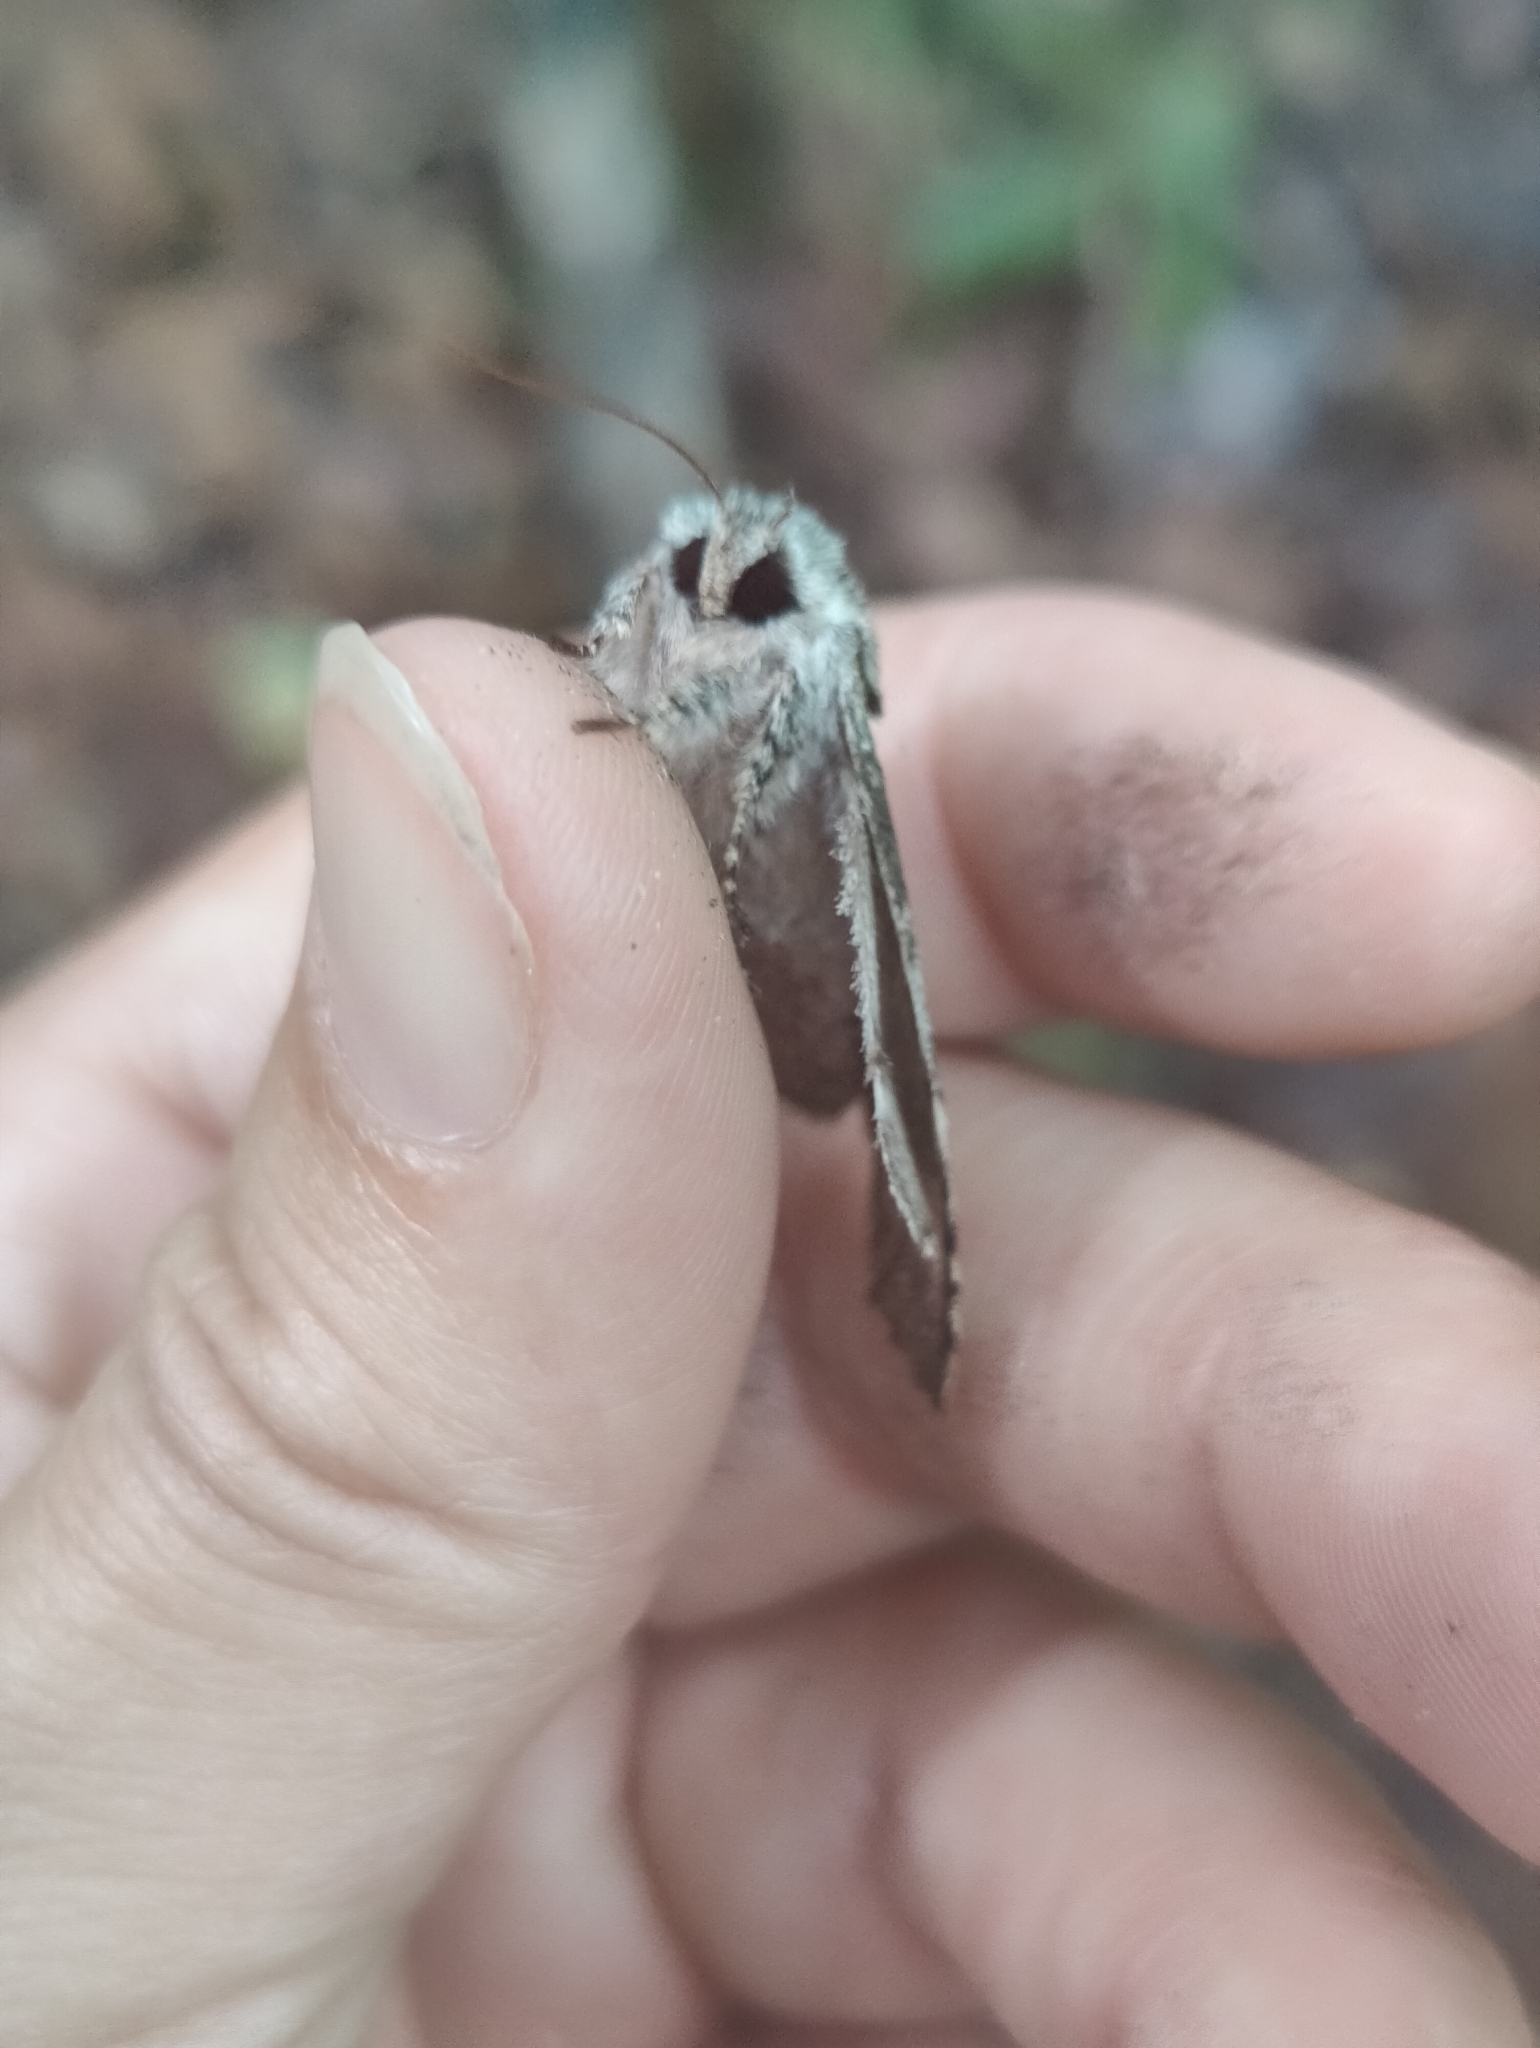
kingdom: Animalia
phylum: Arthropoda
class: Insecta
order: Lepidoptera
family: Notodontidae
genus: Macrurocampa
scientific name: Macrurocampa marthesia
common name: Mottled prominent
